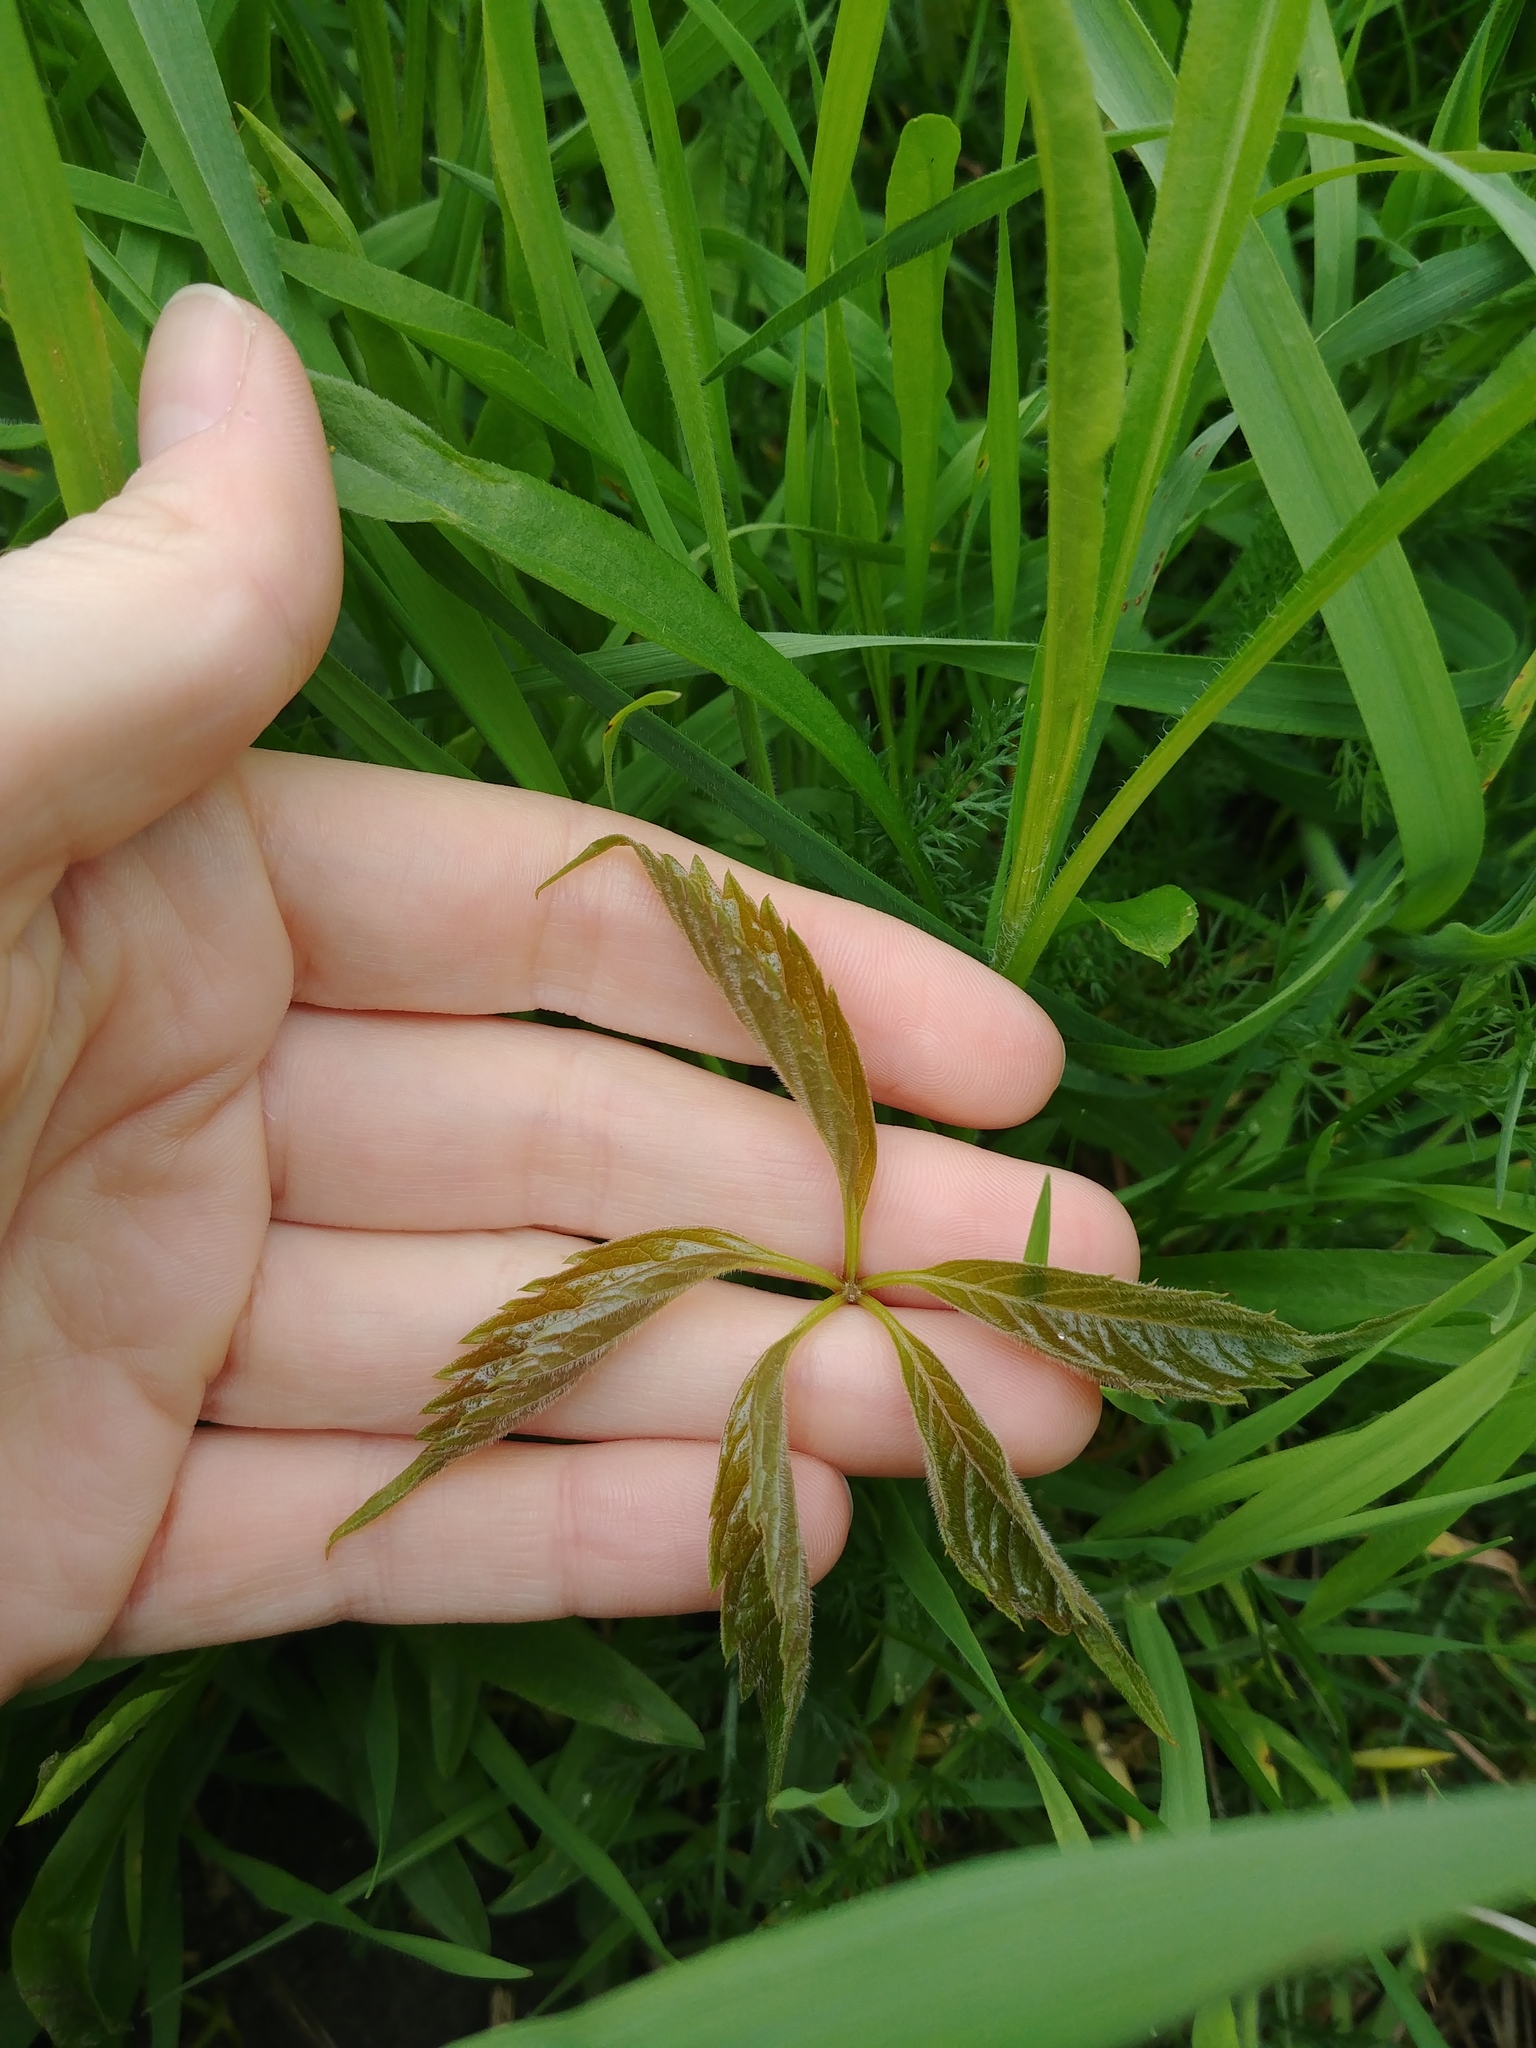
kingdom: Plantae
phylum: Tracheophyta
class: Magnoliopsida
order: Vitales
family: Vitaceae
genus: Parthenocissus
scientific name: Parthenocissus quinquefolia
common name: Virginia-creeper
